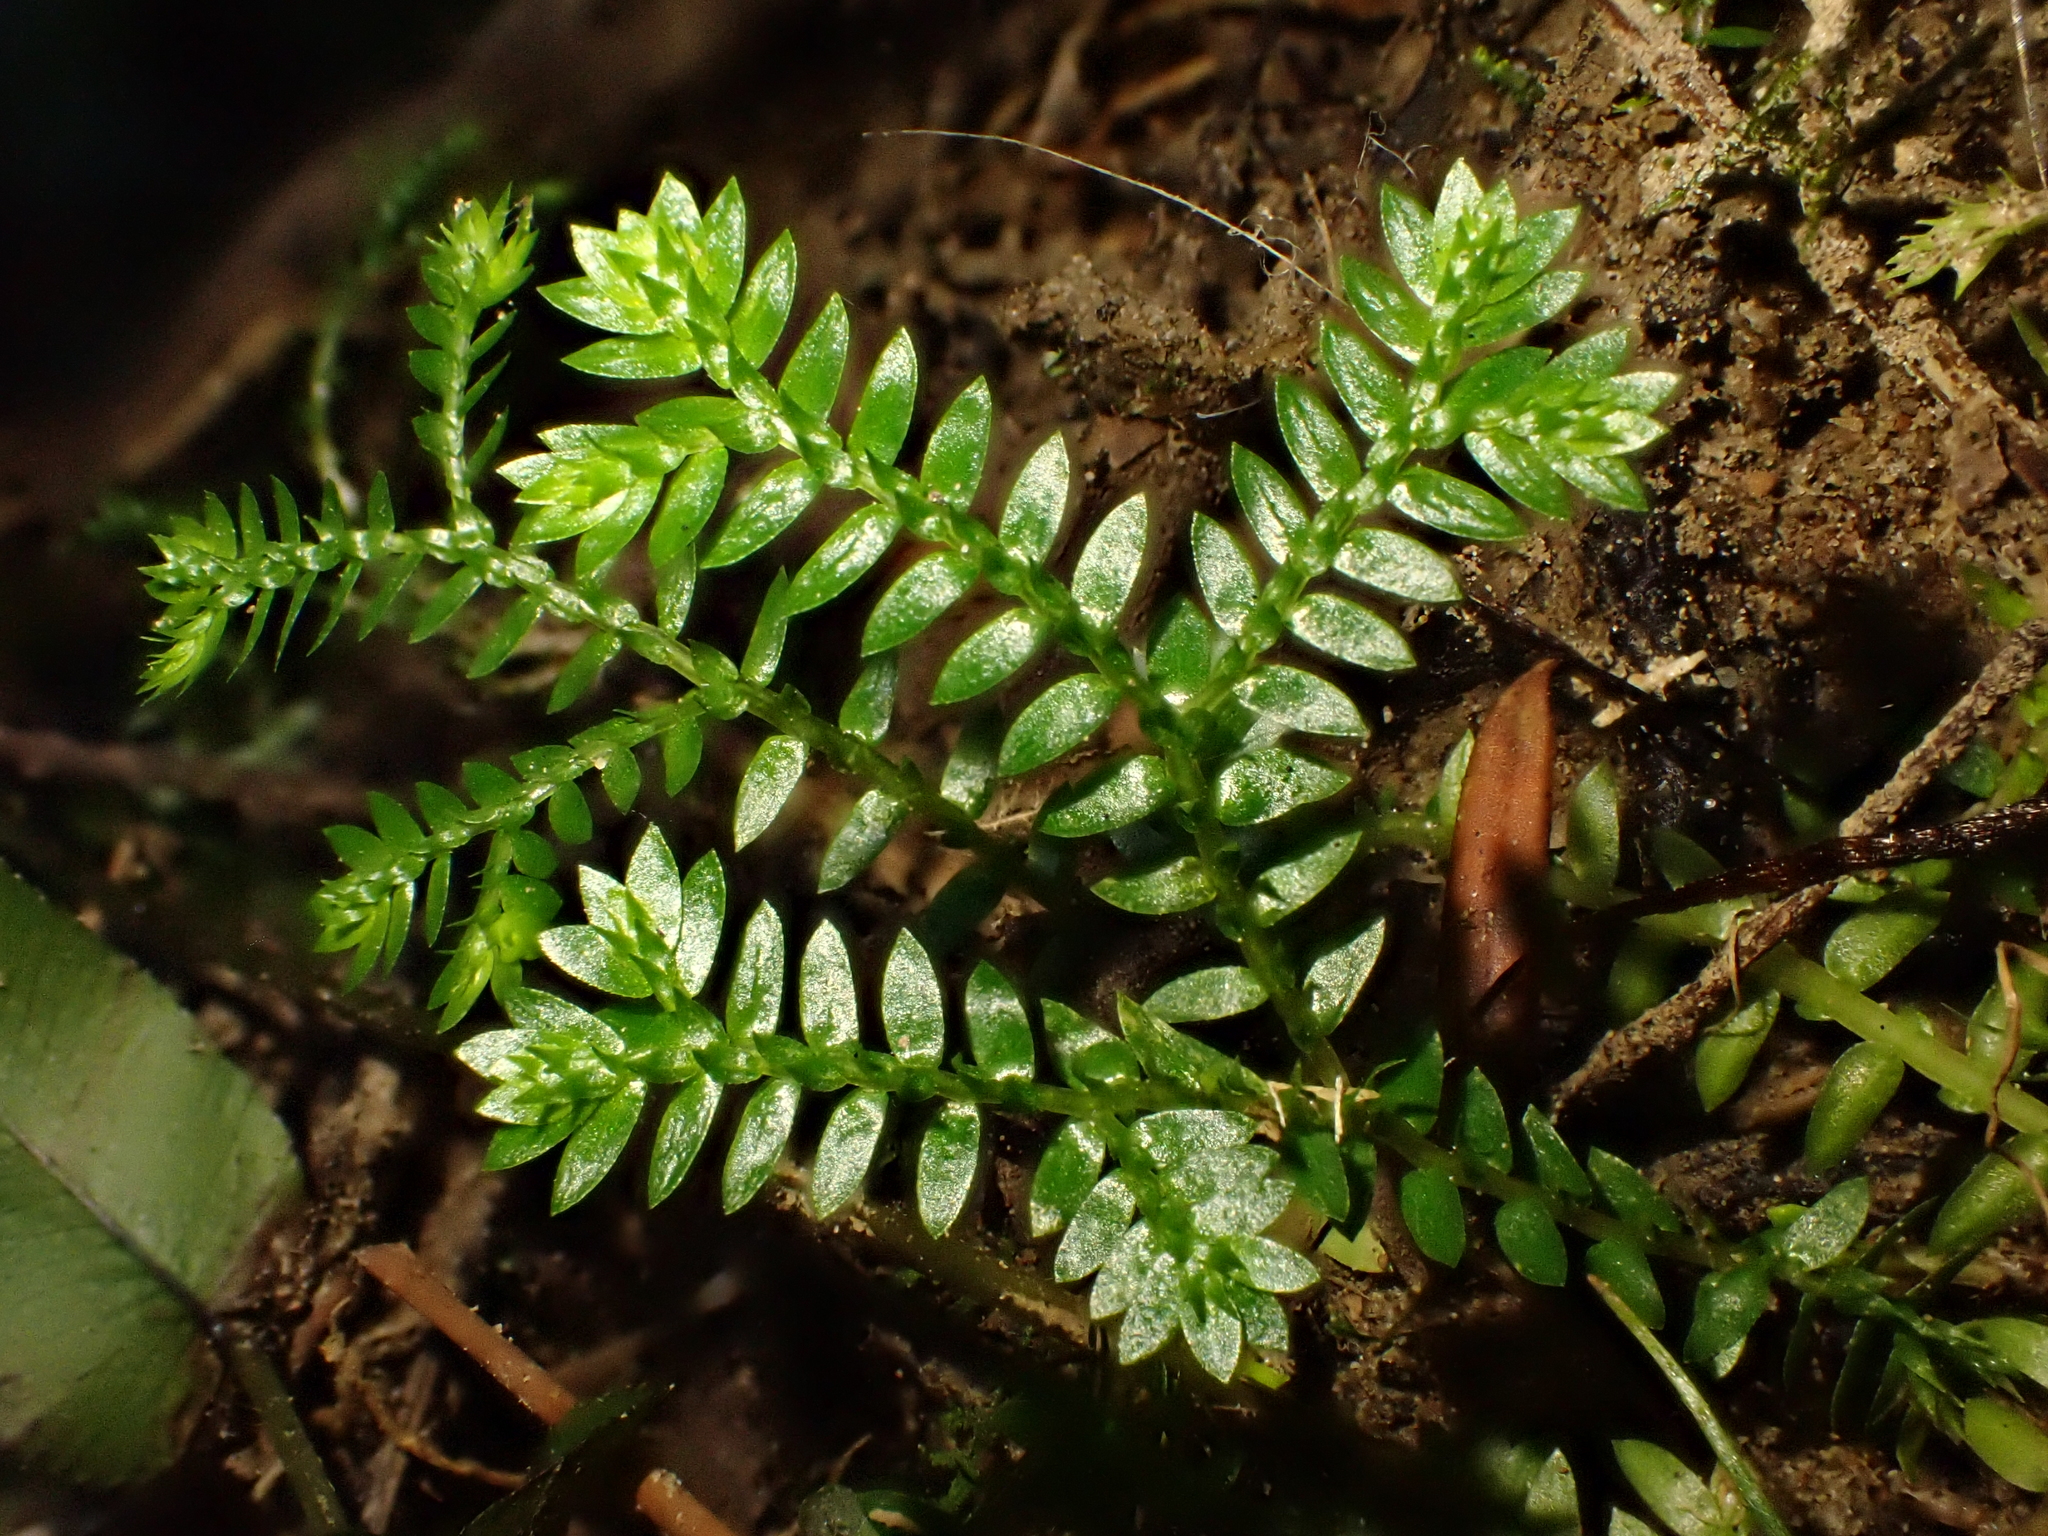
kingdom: Plantae
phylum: Tracheophyta
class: Lycopodiopsida
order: Selaginellales
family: Selaginellaceae
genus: Selaginella
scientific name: Selaginella kraussiana
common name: Krauss' spikemoss
